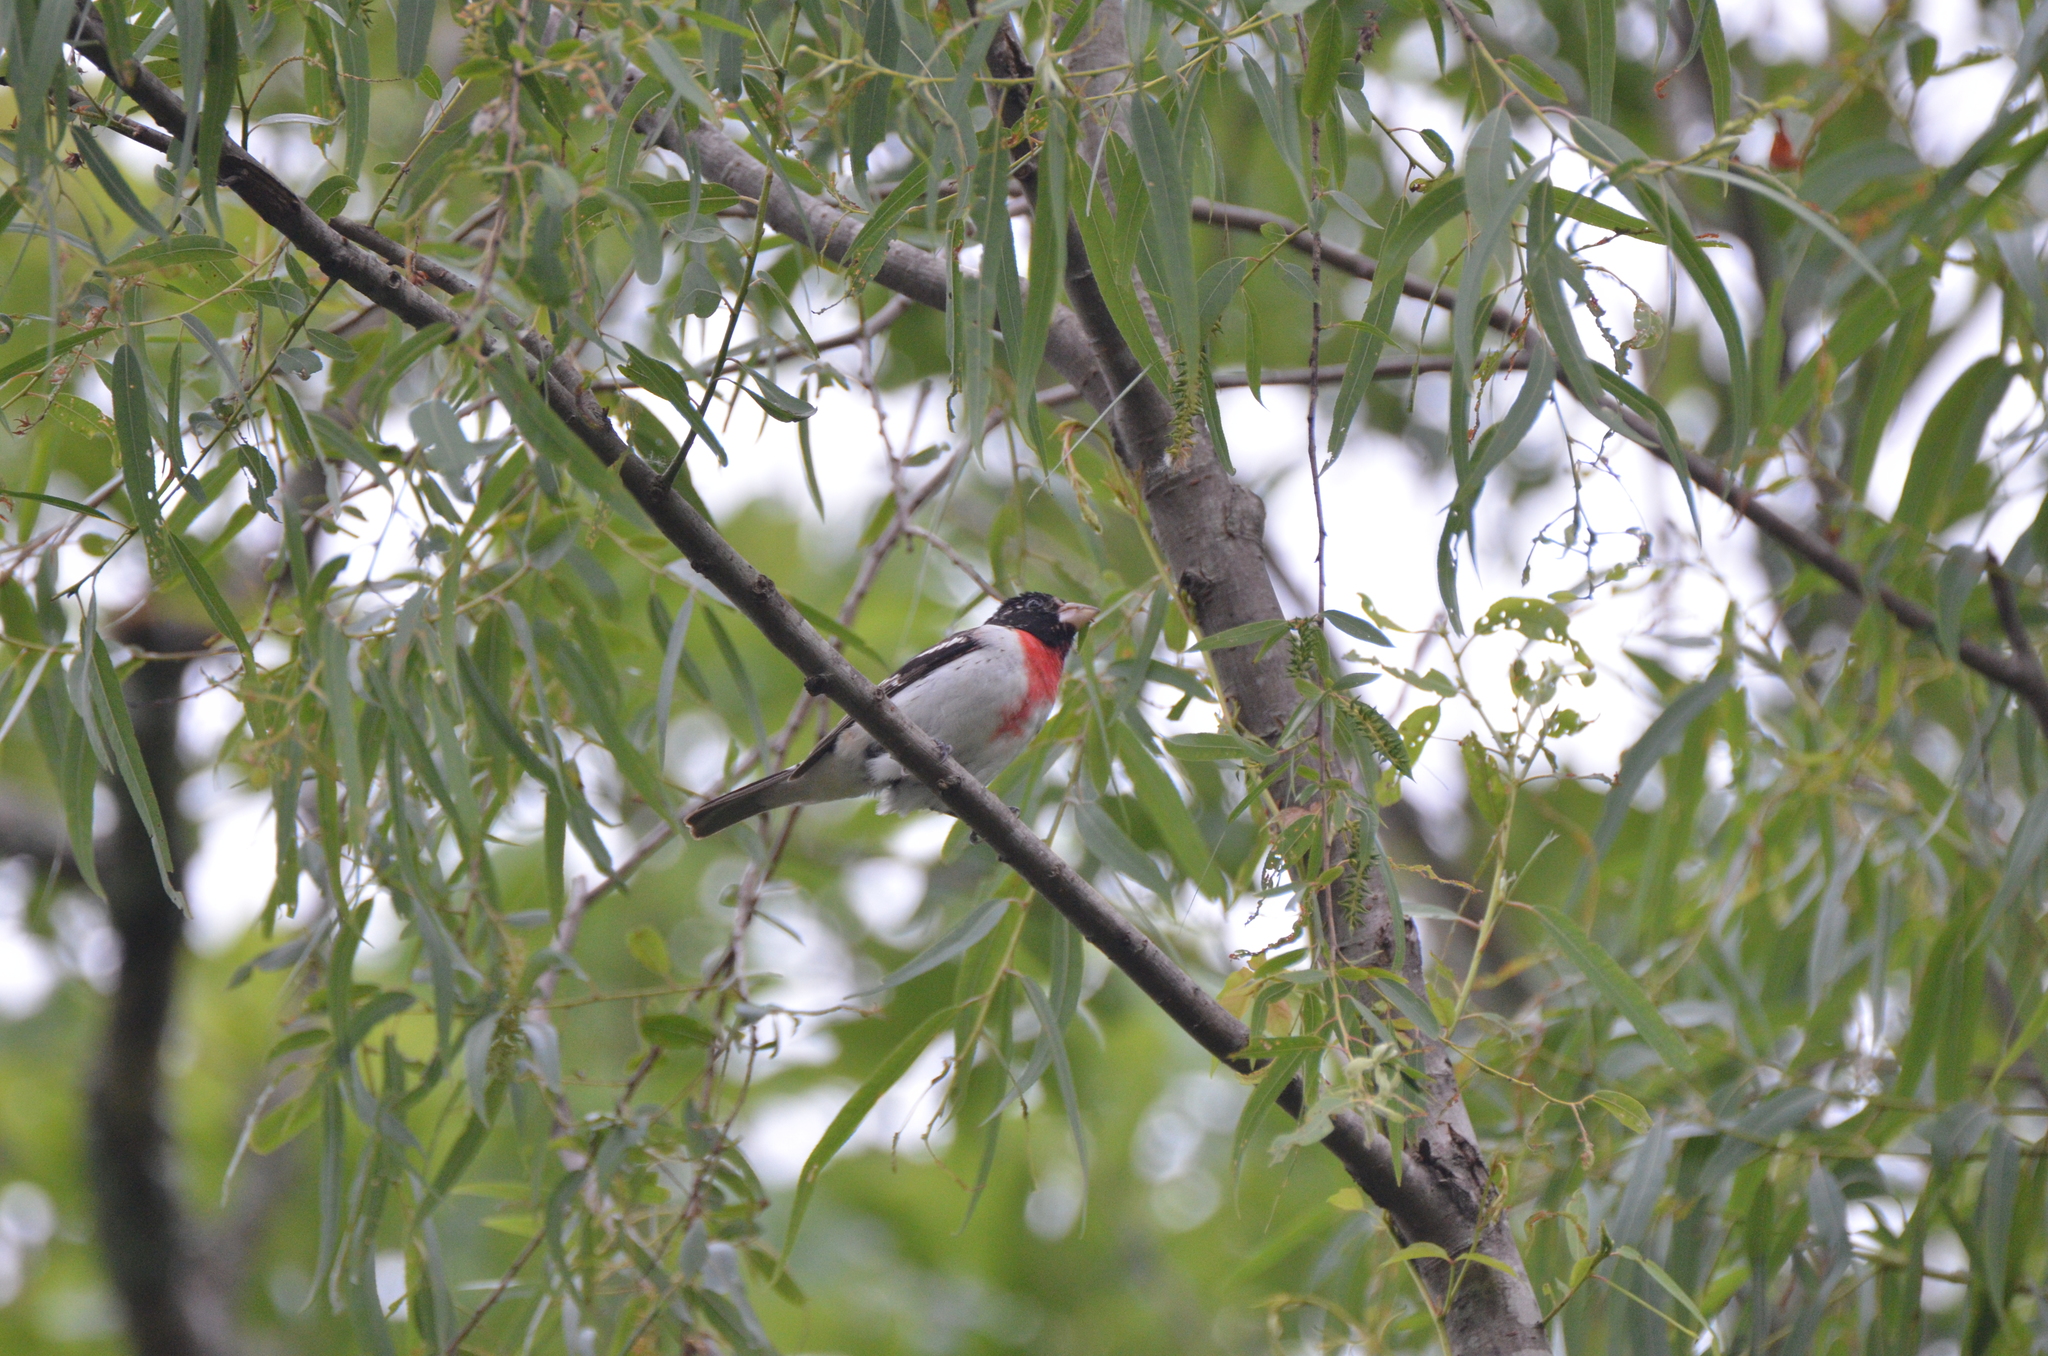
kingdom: Animalia
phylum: Chordata
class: Aves
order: Passeriformes
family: Cardinalidae
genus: Pheucticus
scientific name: Pheucticus ludovicianus
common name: Rose-breasted grosbeak
